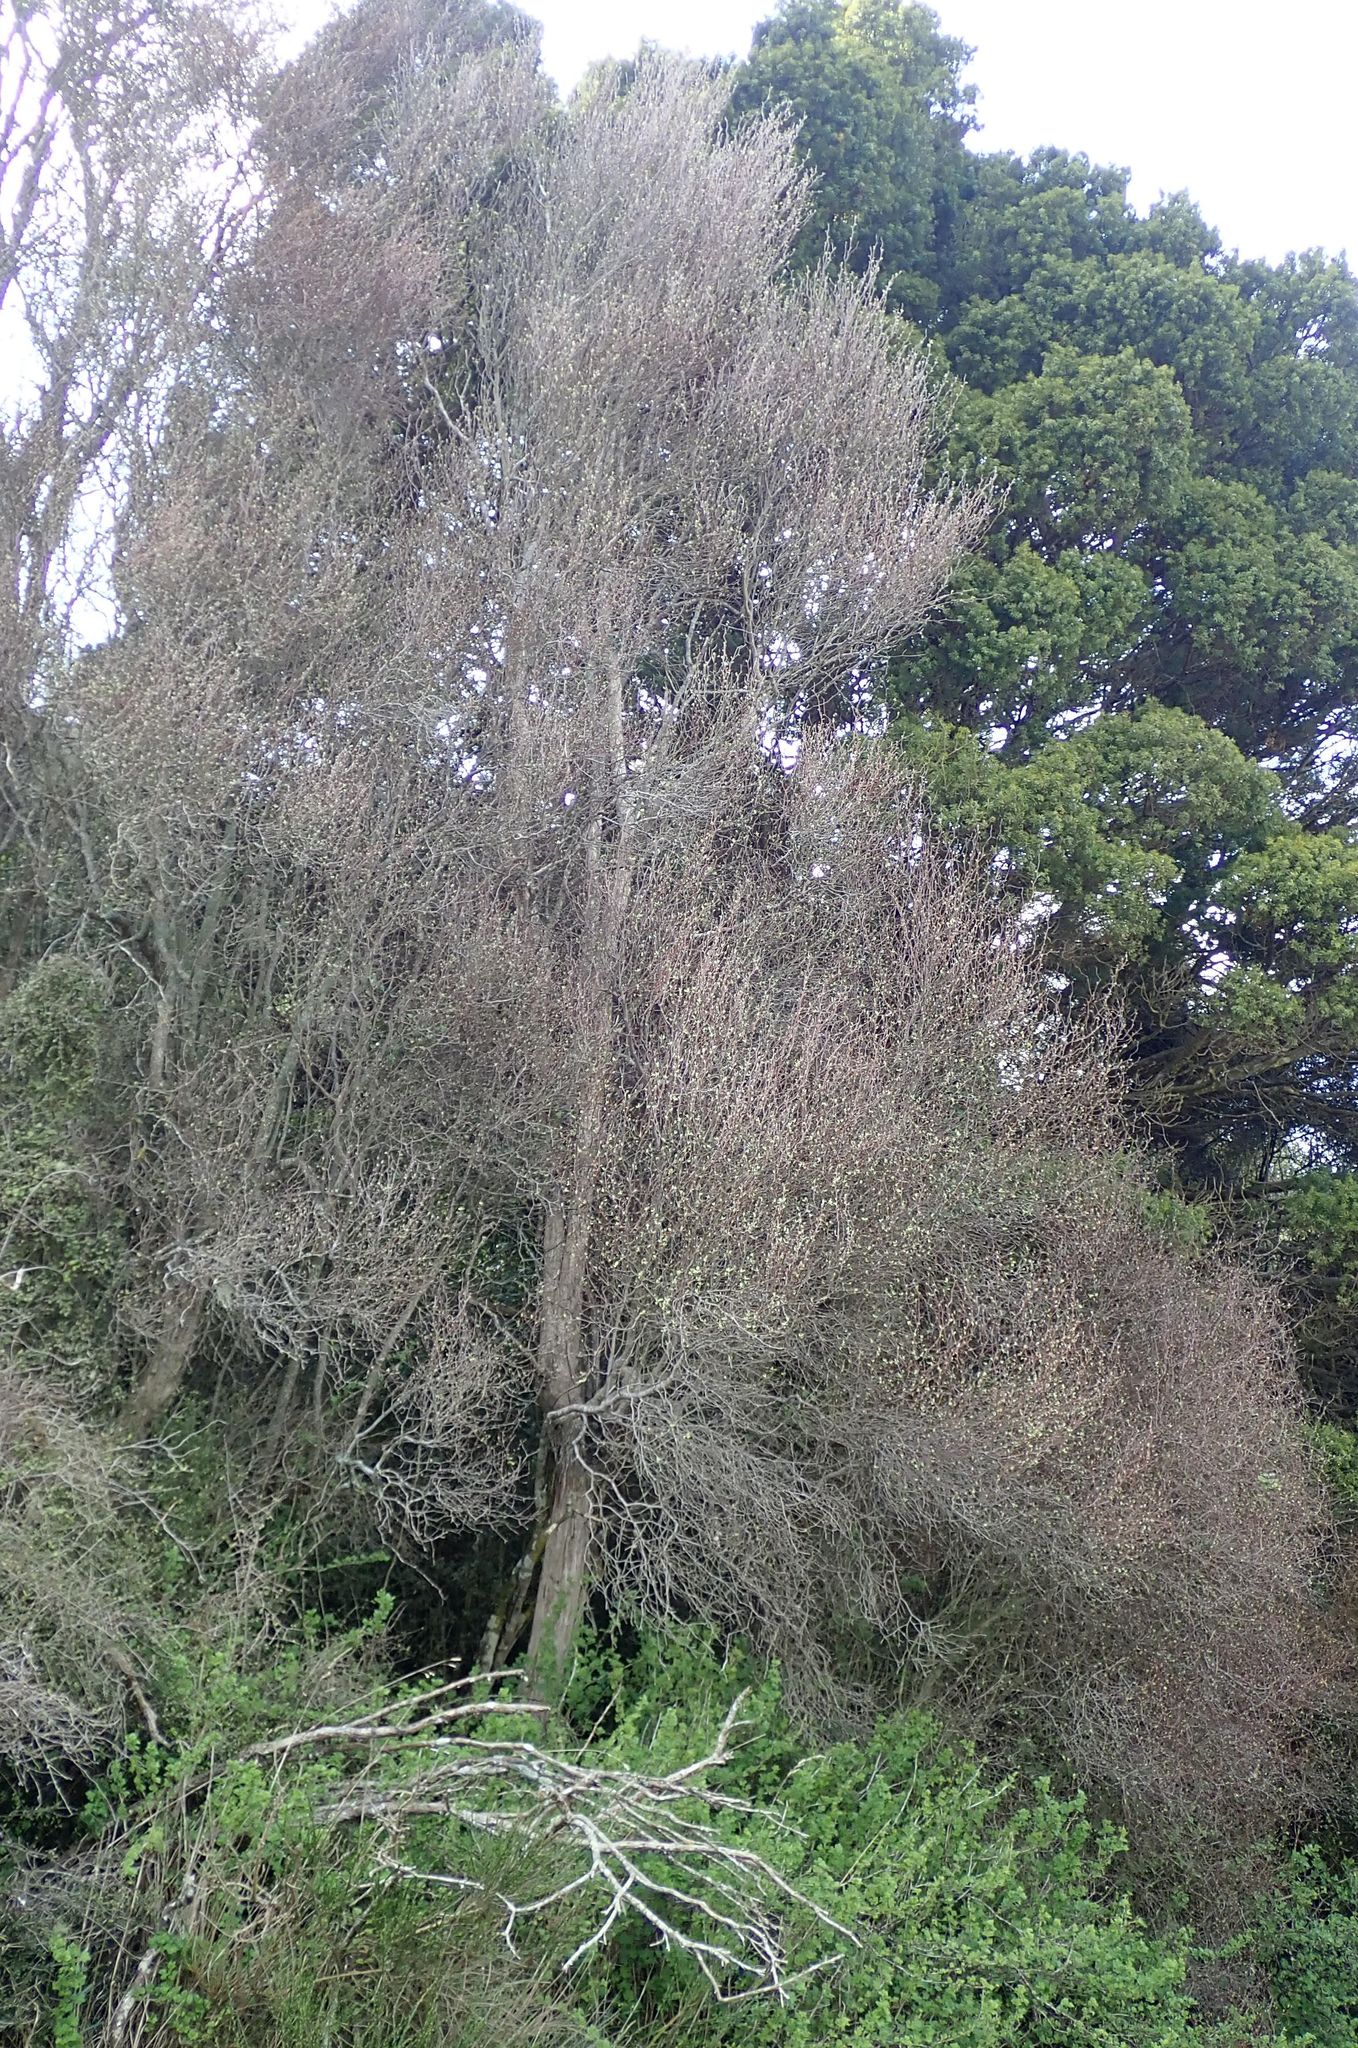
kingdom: Plantae
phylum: Tracheophyta
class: Magnoliopsida
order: Asterales
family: Asteraceae
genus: Olearia
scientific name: Olearia fragrantissima
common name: Fragrant tree daisy
